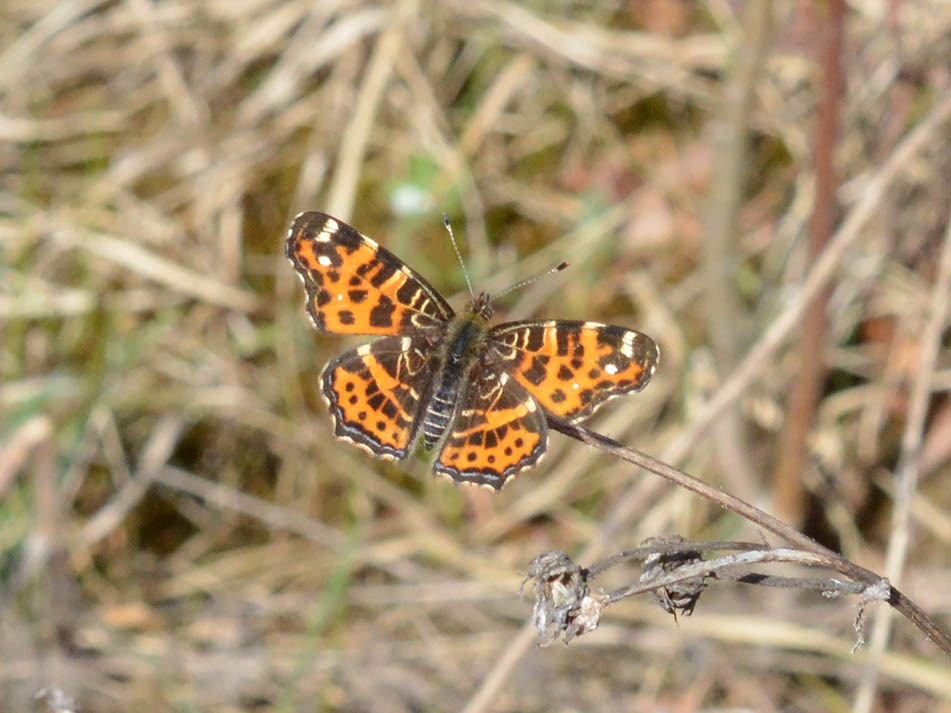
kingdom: Animalia
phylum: Arthropoda
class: Insecta
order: Lepidoptera
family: Nymphalidae
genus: Araschnia
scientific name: Araschnia levana
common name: Map butterfly
